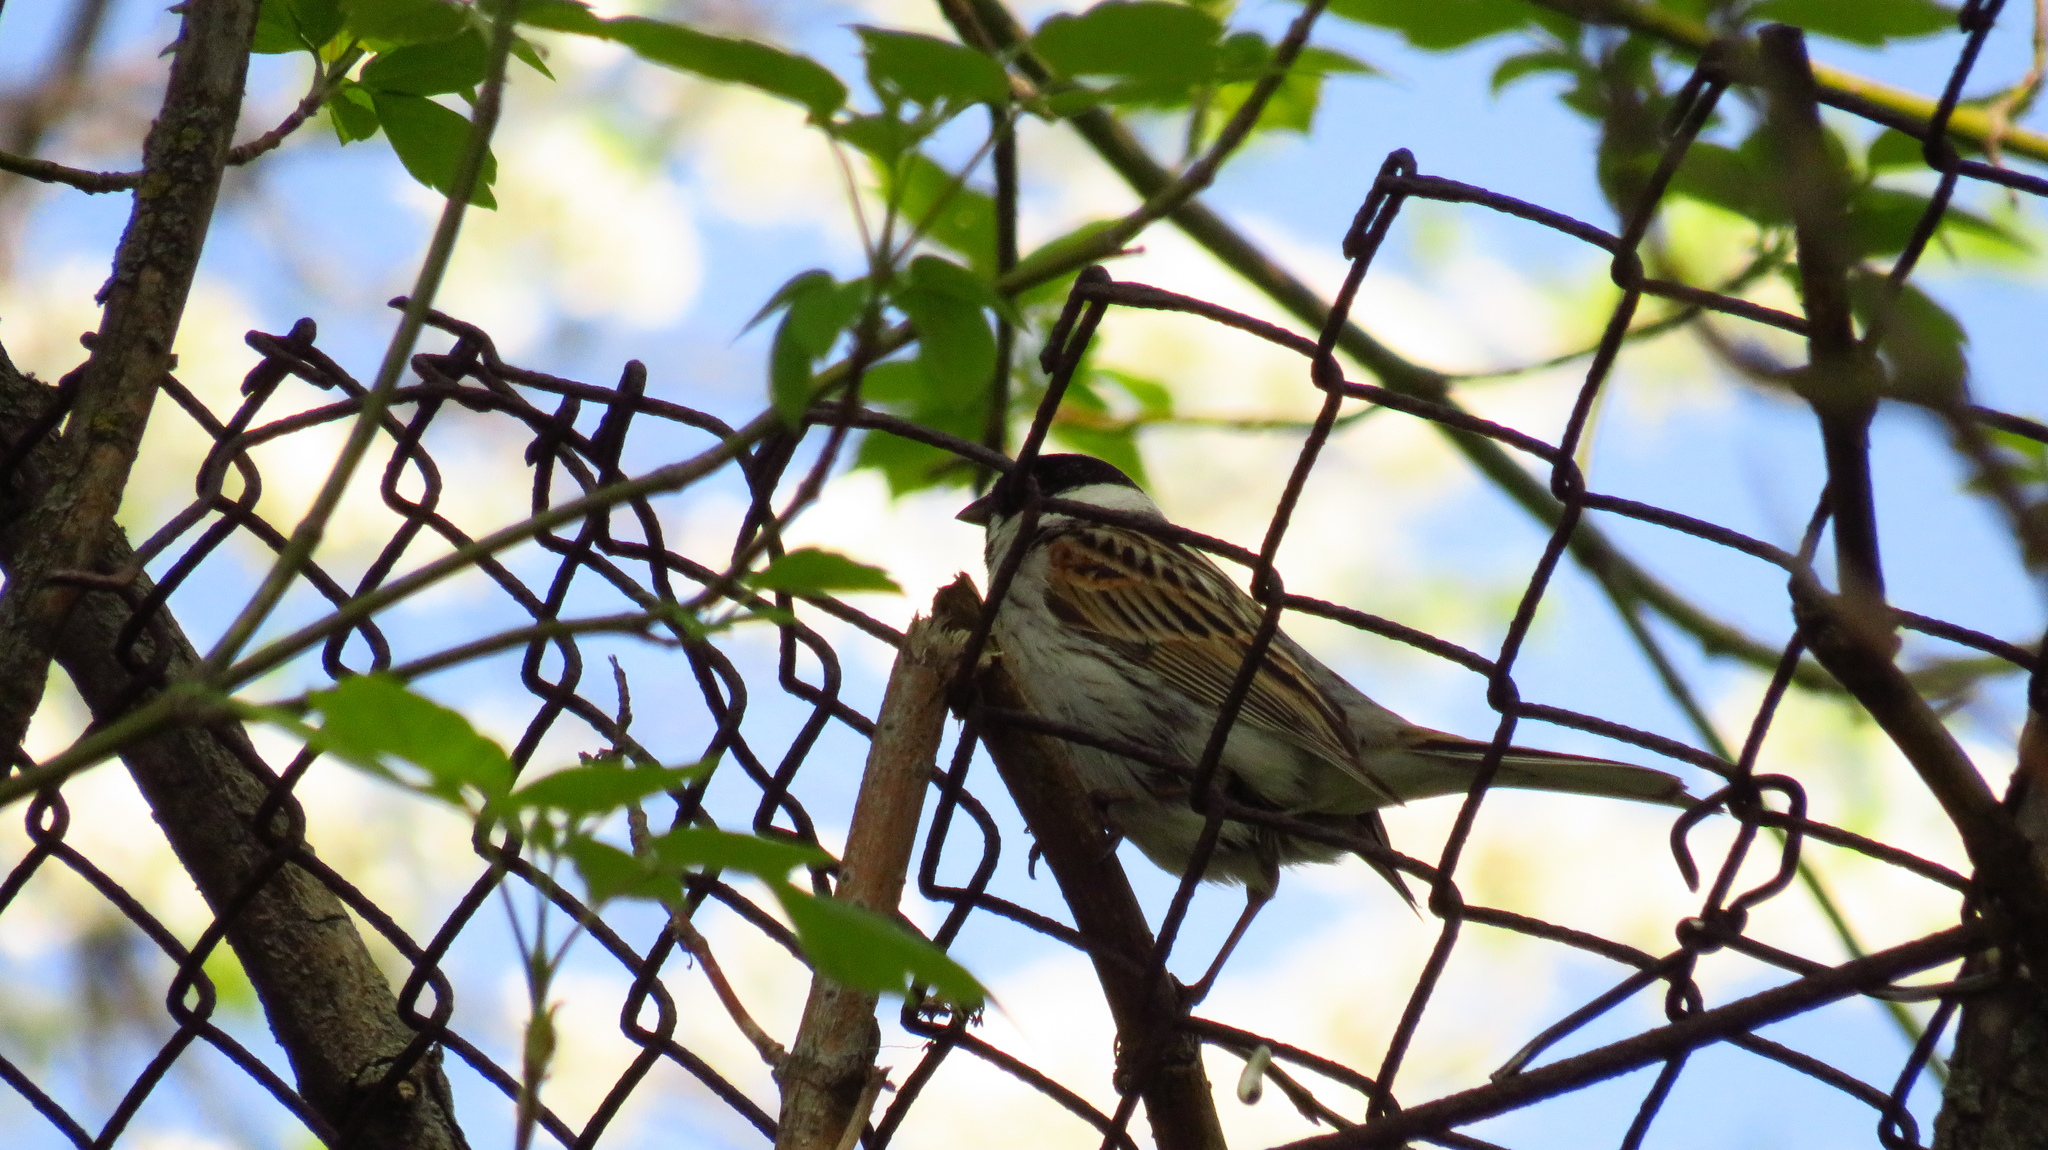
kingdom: Animalia
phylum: Chordata
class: Aves
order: Passeriformes
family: Emberizidae
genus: Emberiza
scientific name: Emberiza schoeniclus
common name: Reed bunting
